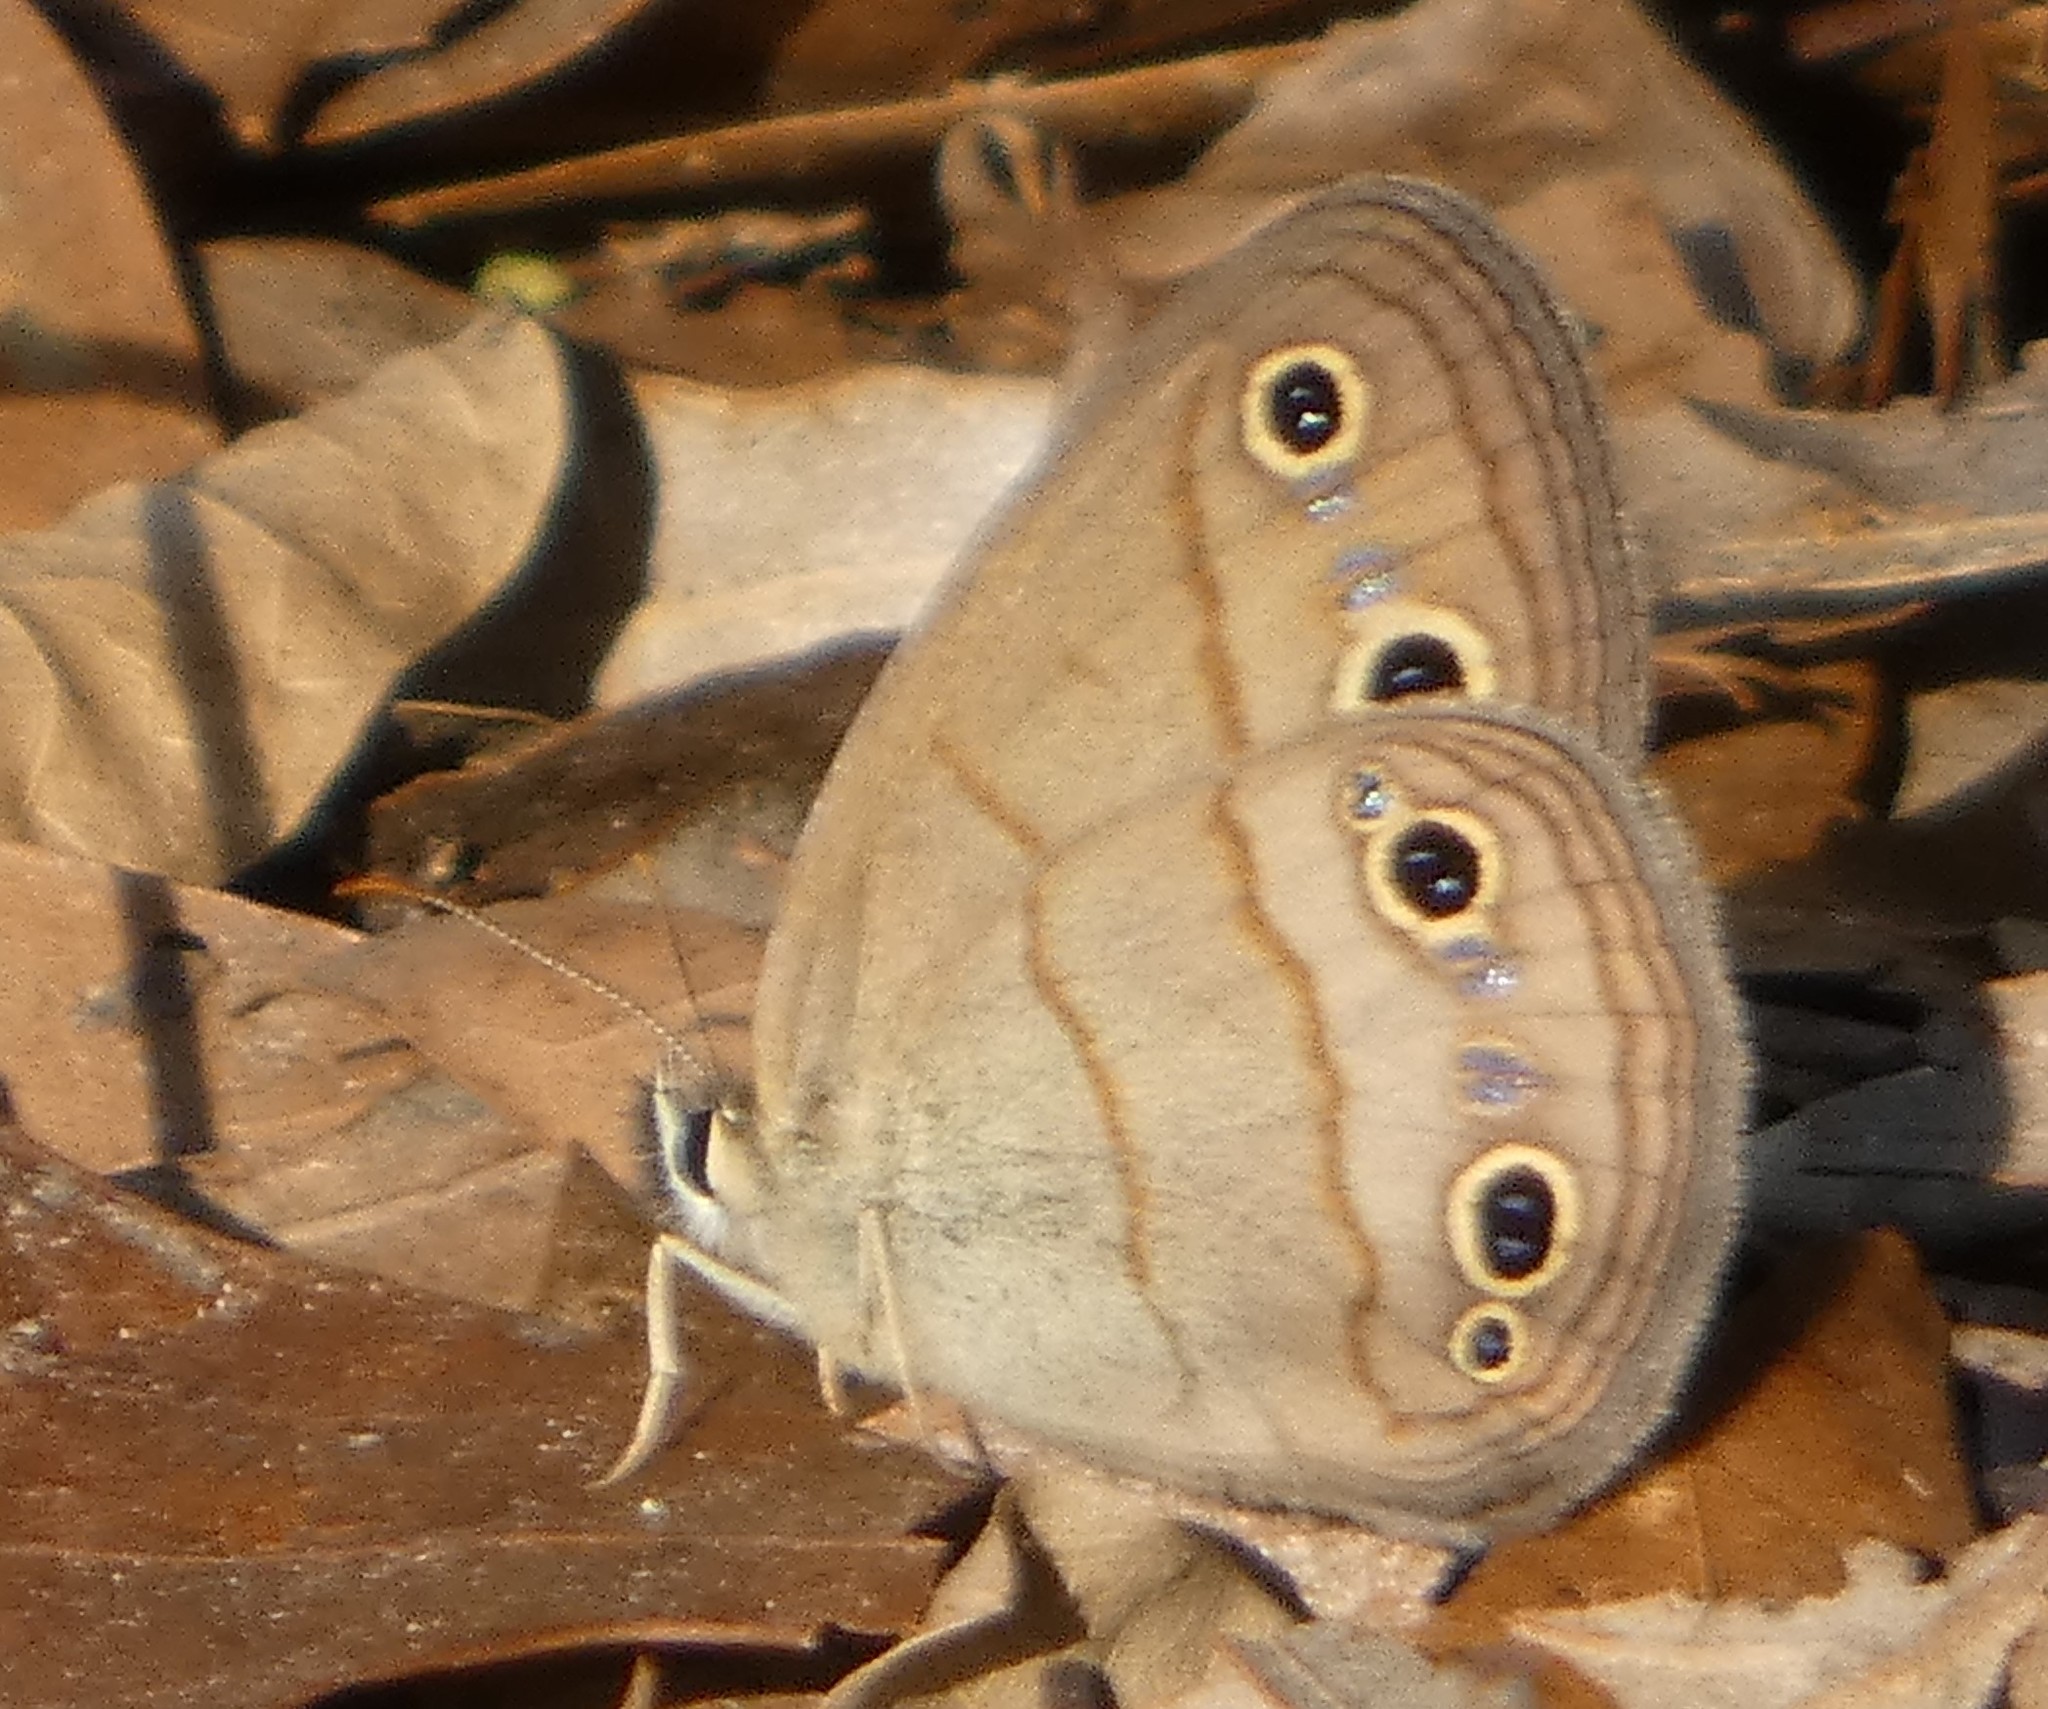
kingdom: Animalia
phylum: Arthropoda
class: Insecta
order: Lepidoptera
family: Nymphalidae
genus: Euptychia
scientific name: Euptychia cymela
